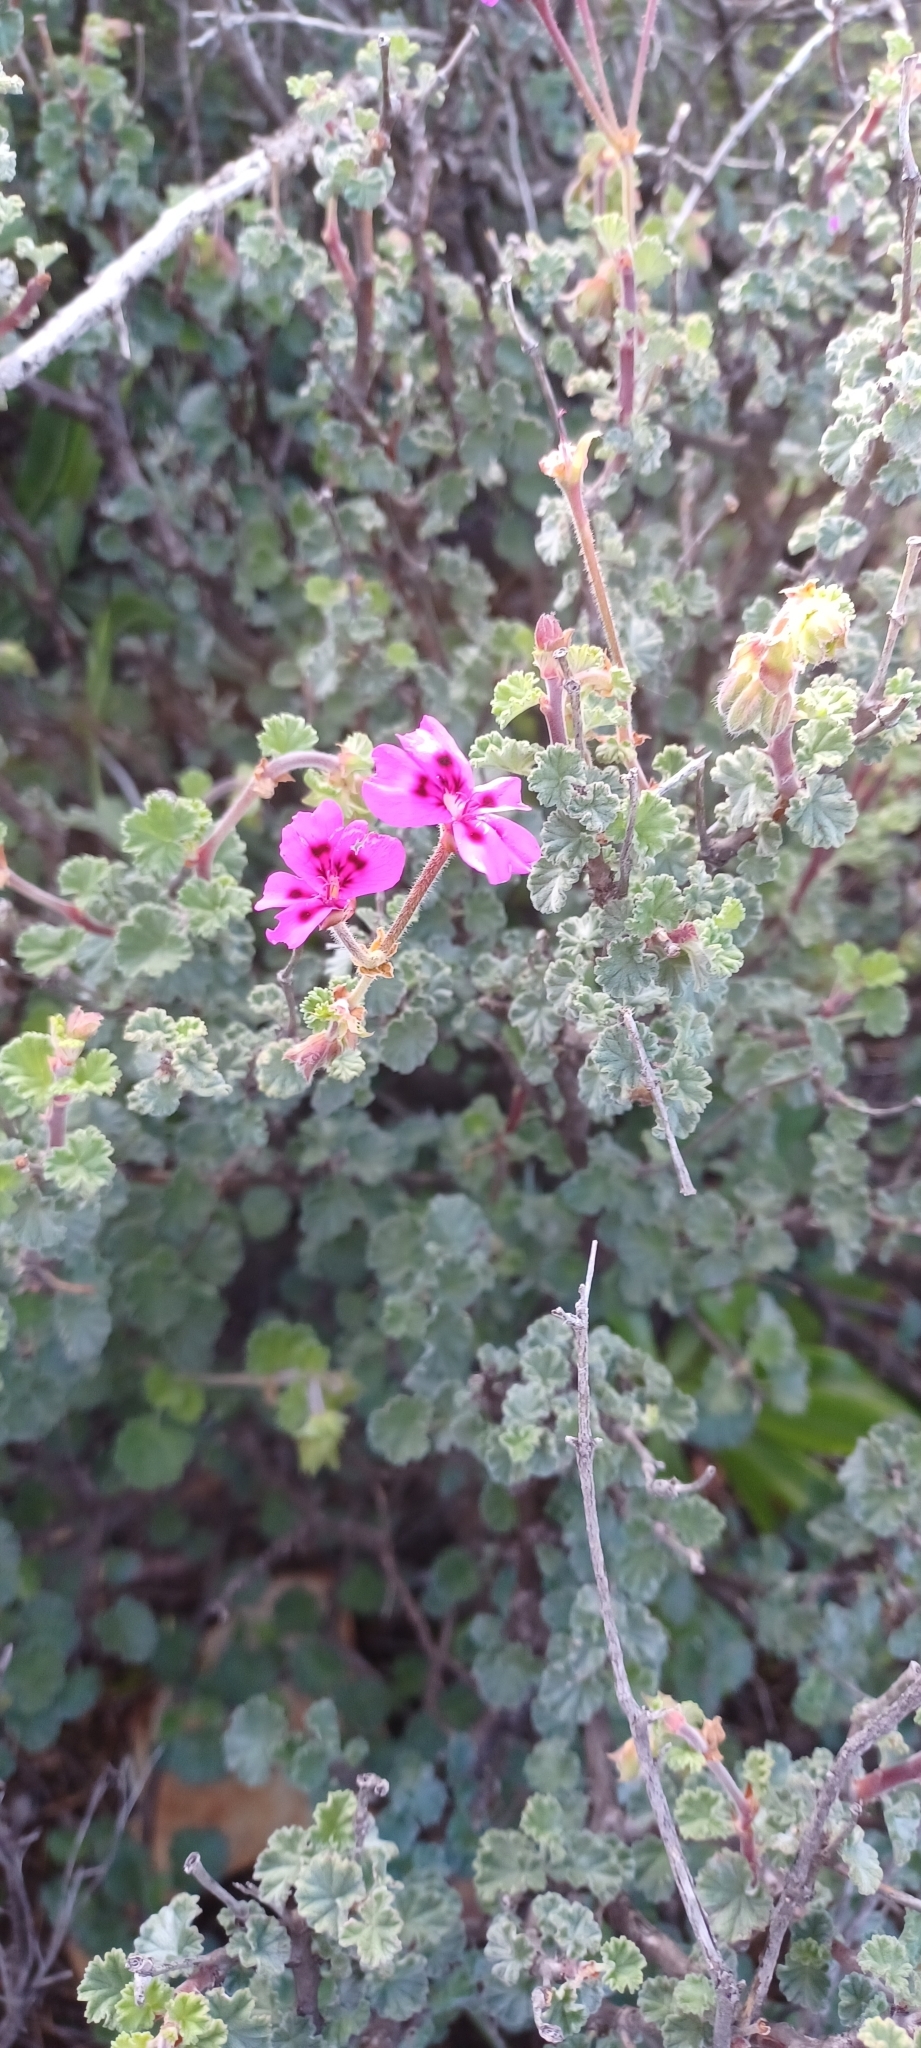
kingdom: Plantae
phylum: Tracheophyta
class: Magnoliopsida
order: Geraniales
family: Geraniaceae
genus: Pelargonium
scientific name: Pelargonium magenteum
